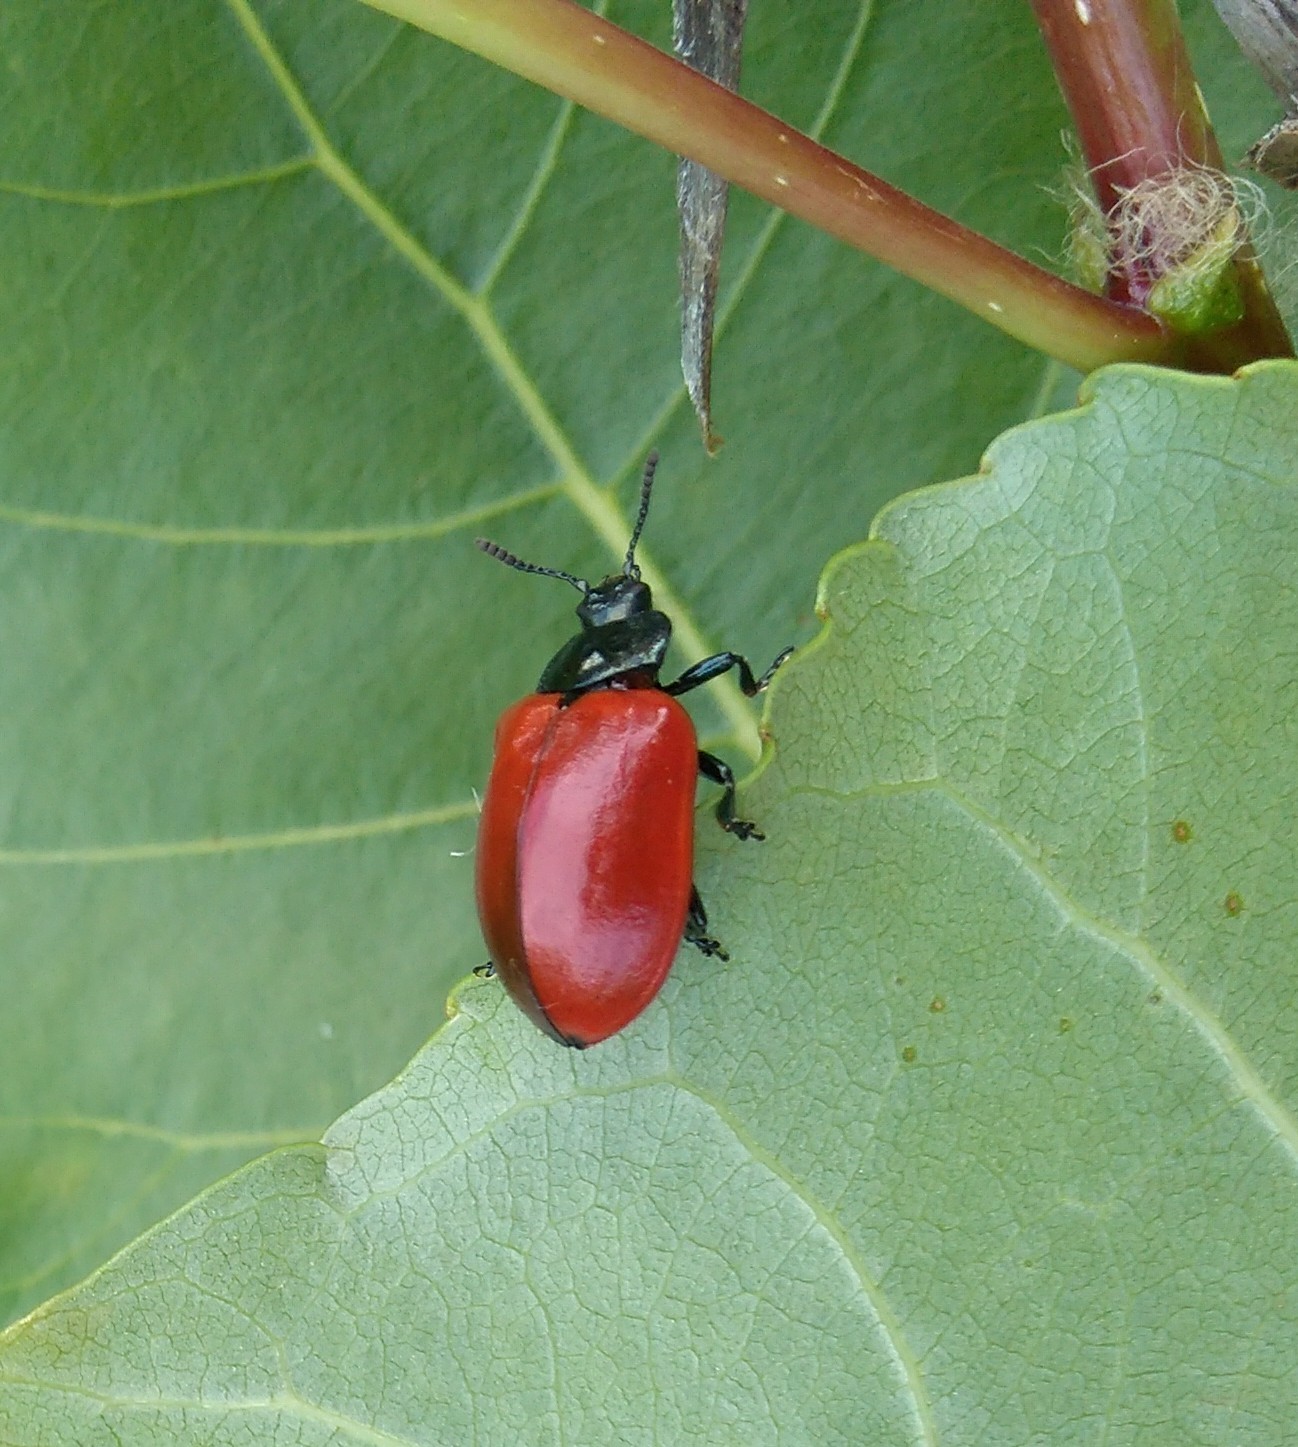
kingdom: Animalia
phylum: Arthropoda
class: Insecta
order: Coleoptera
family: Chrysomelidae
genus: Chrysomela
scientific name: Chrysomela populi
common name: Red poplar leaf beetle
